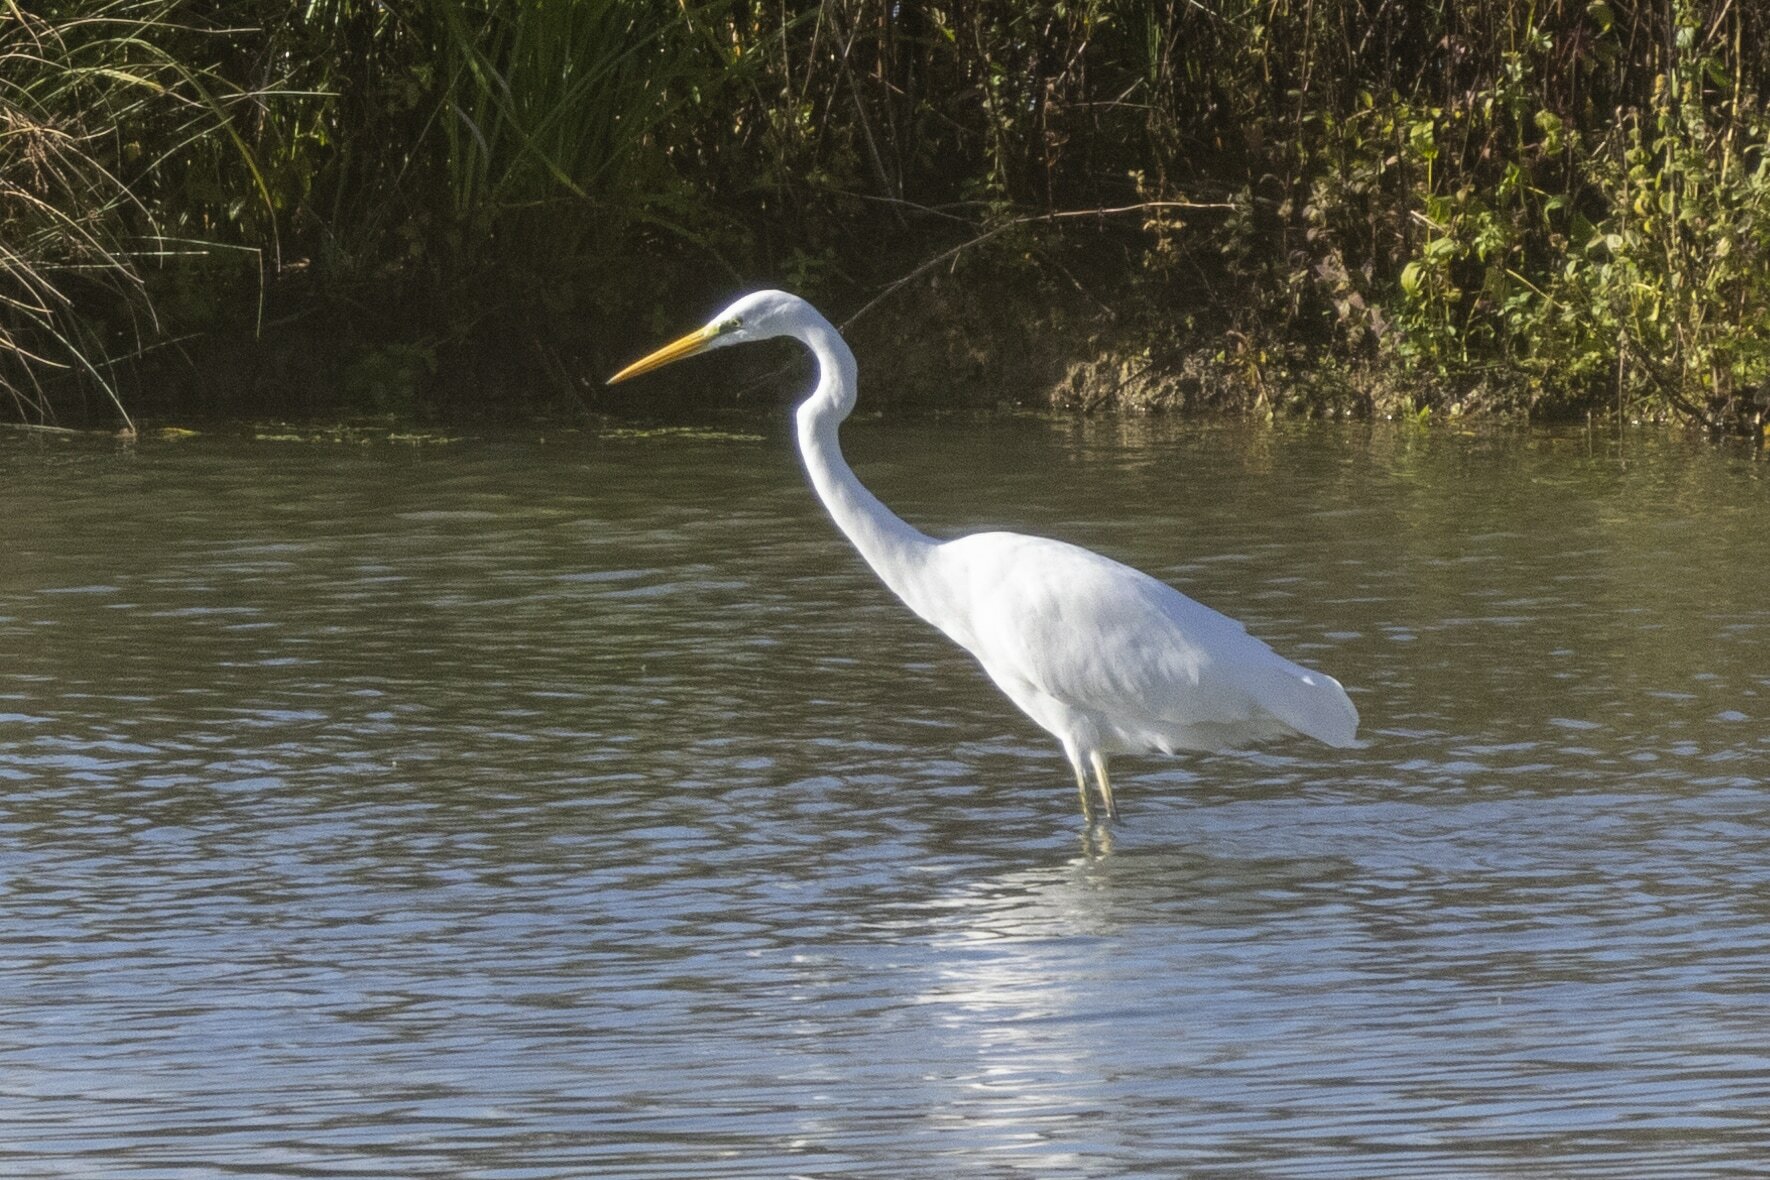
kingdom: Animalia
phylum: Chordata
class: Aves
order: Pelecaniformes
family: Ardeidae
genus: Ardea
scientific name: Ardea alba
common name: Great egret
